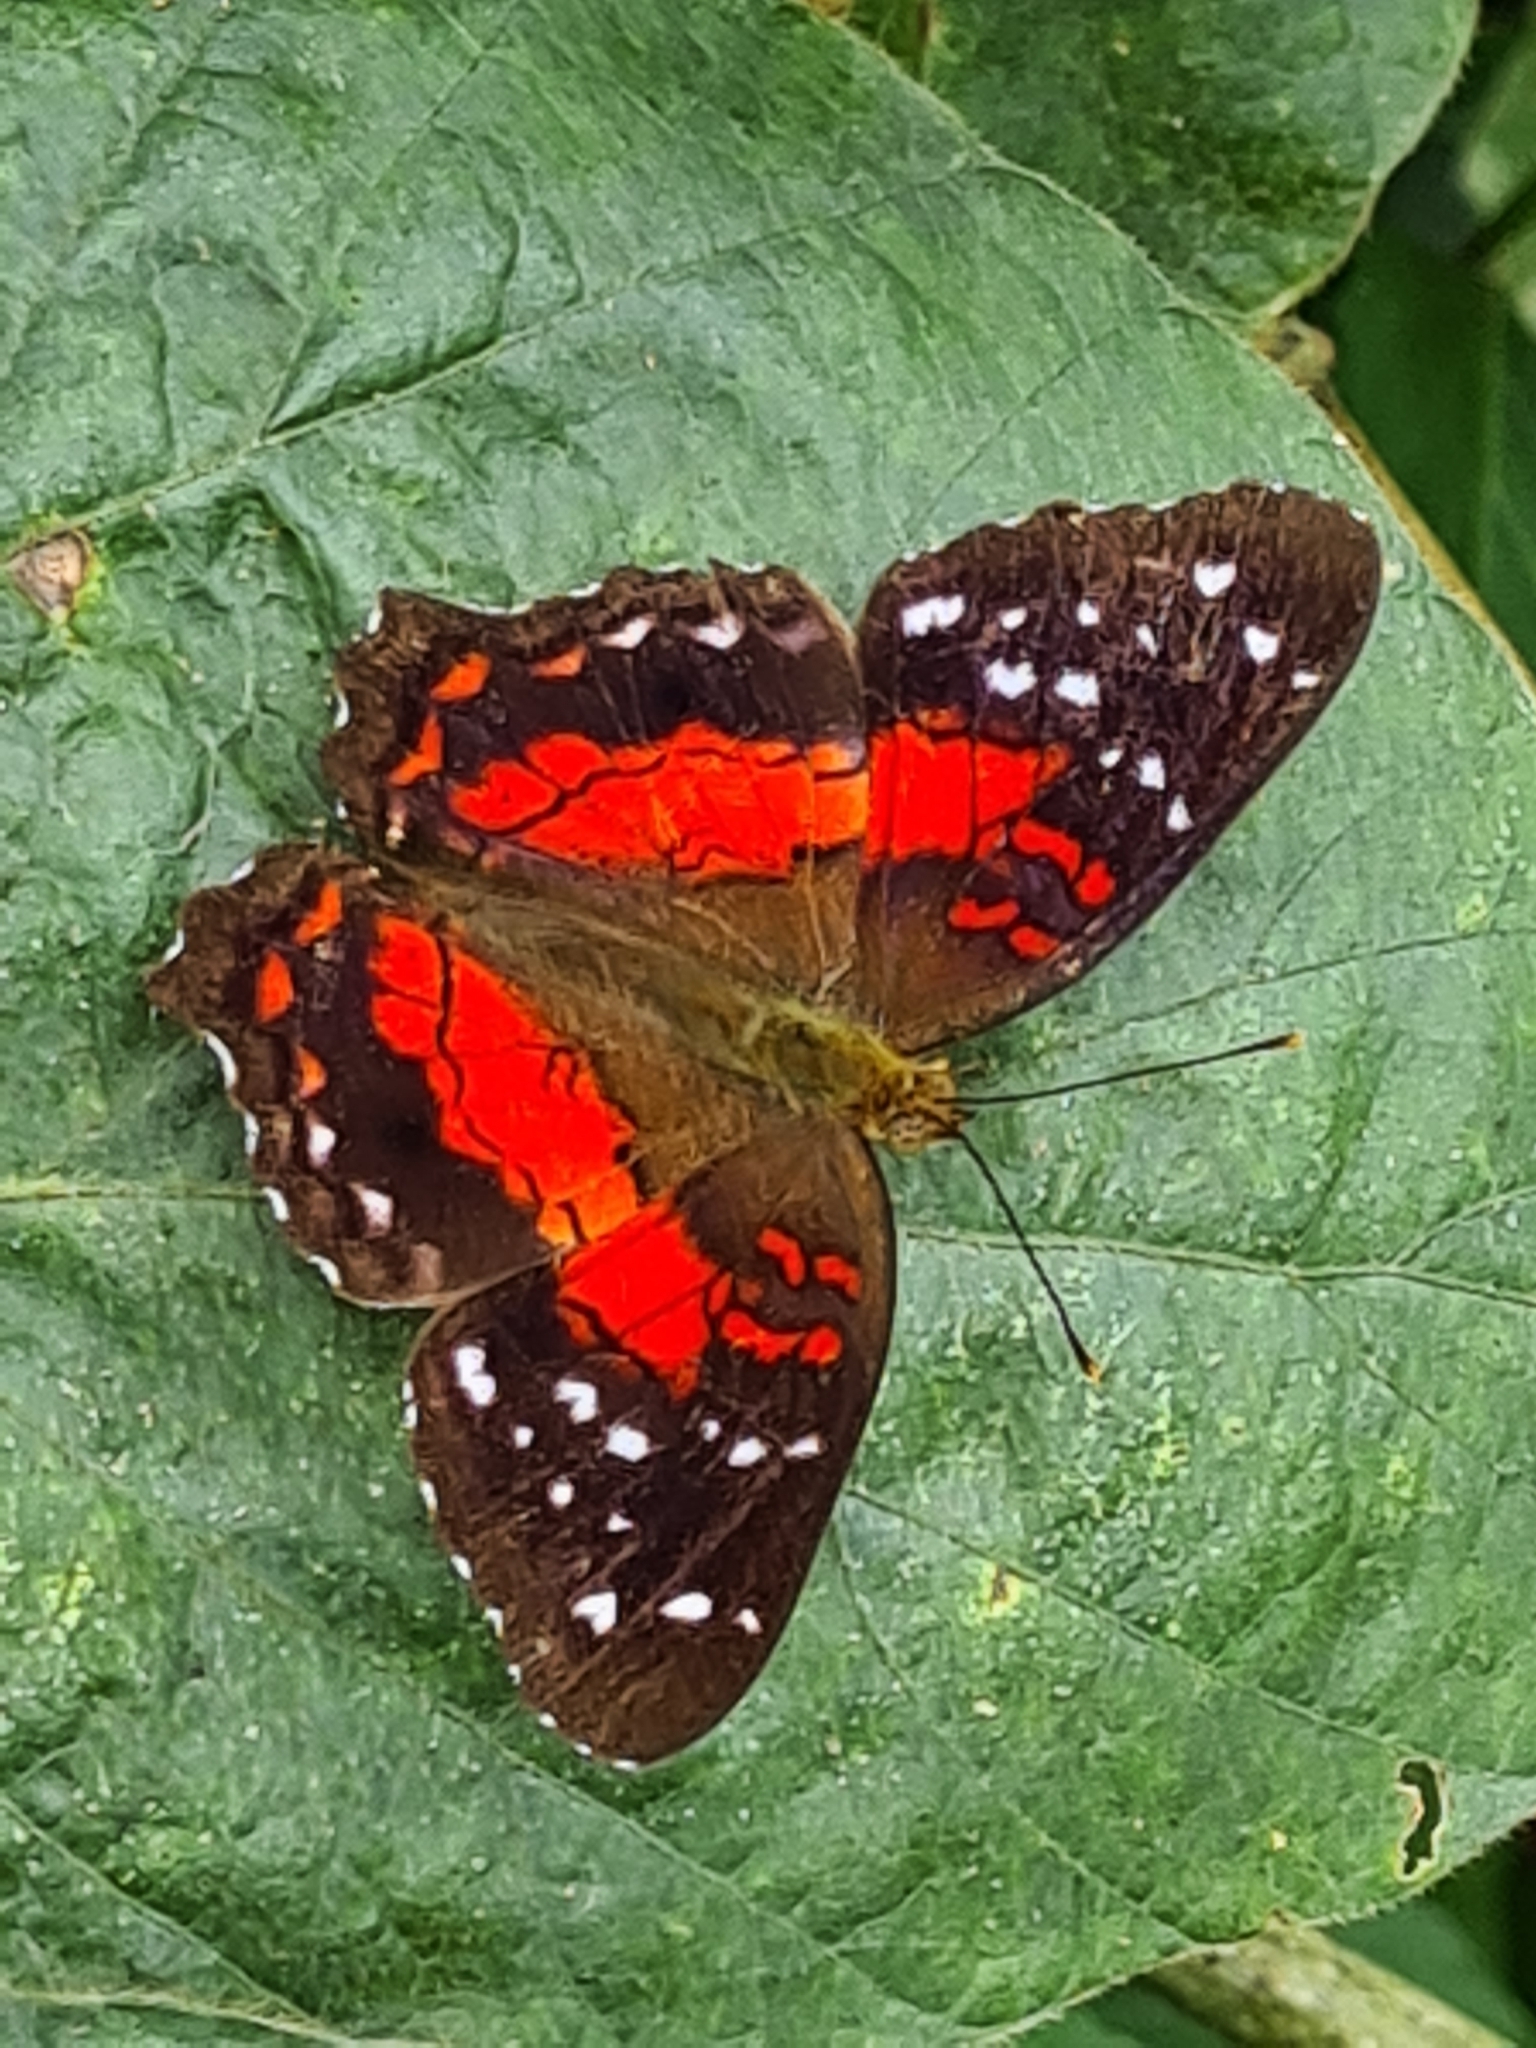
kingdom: Animalia
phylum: Arthropoda
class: Insecta
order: Lepidoptera
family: Nymphalidae
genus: Anartia
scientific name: Anartia amathea
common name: Red peacock
